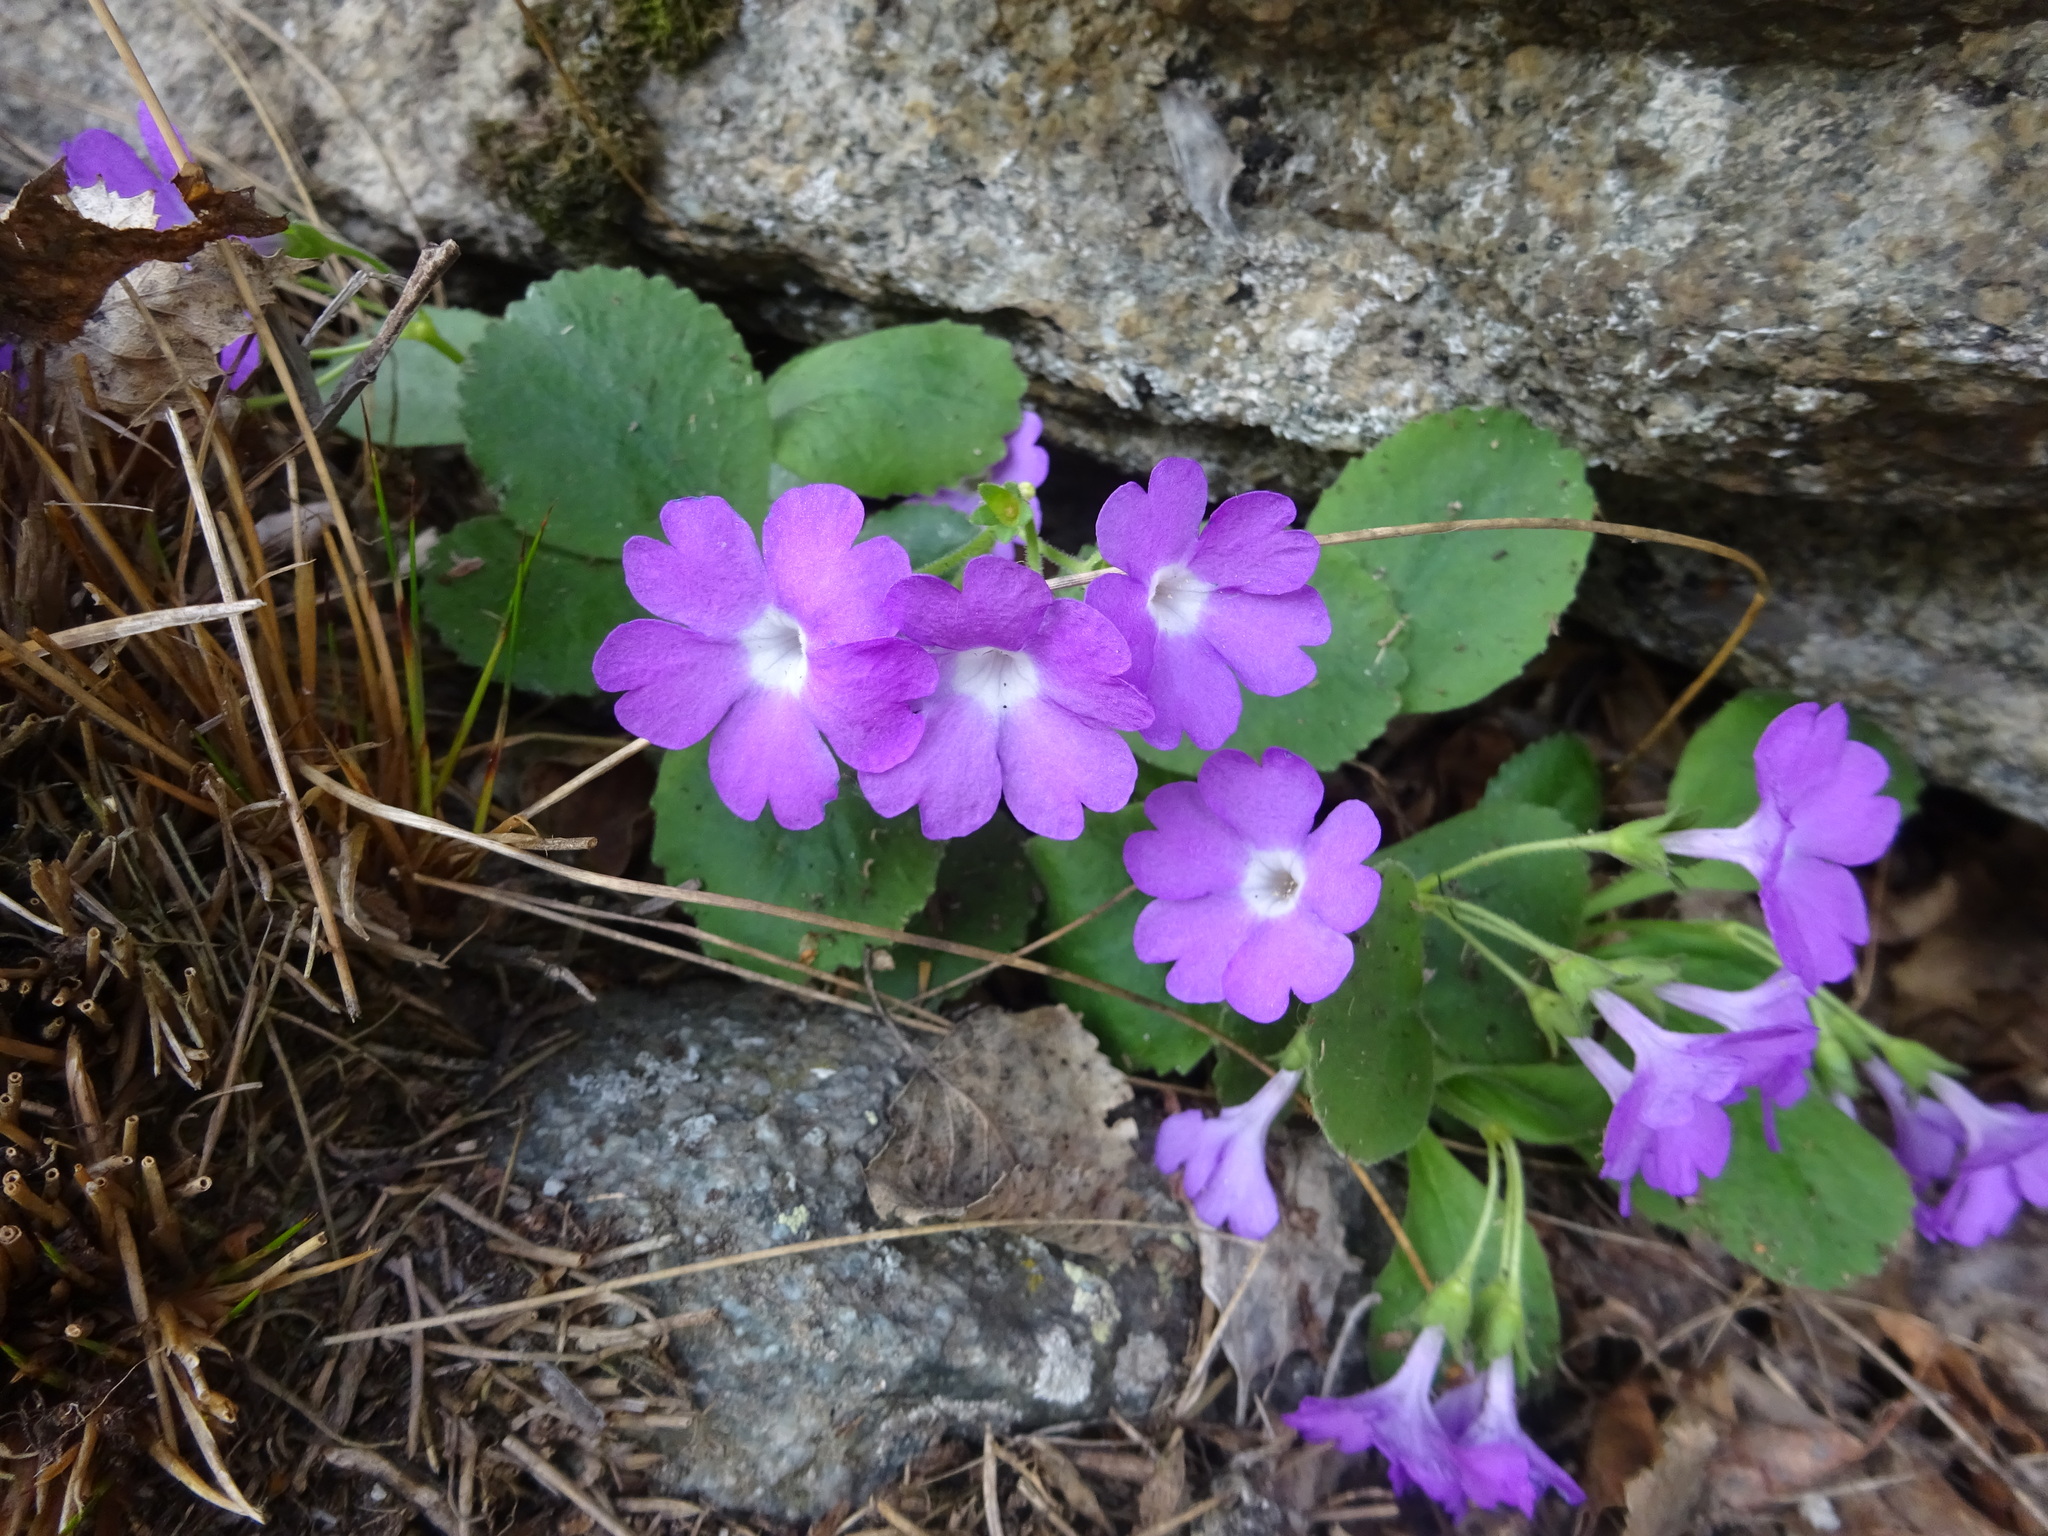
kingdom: Plantae
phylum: Tracheophyta
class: Magnoliopsida
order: Ericales
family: Primulaceae
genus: Primula
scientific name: Primula hirsuta
